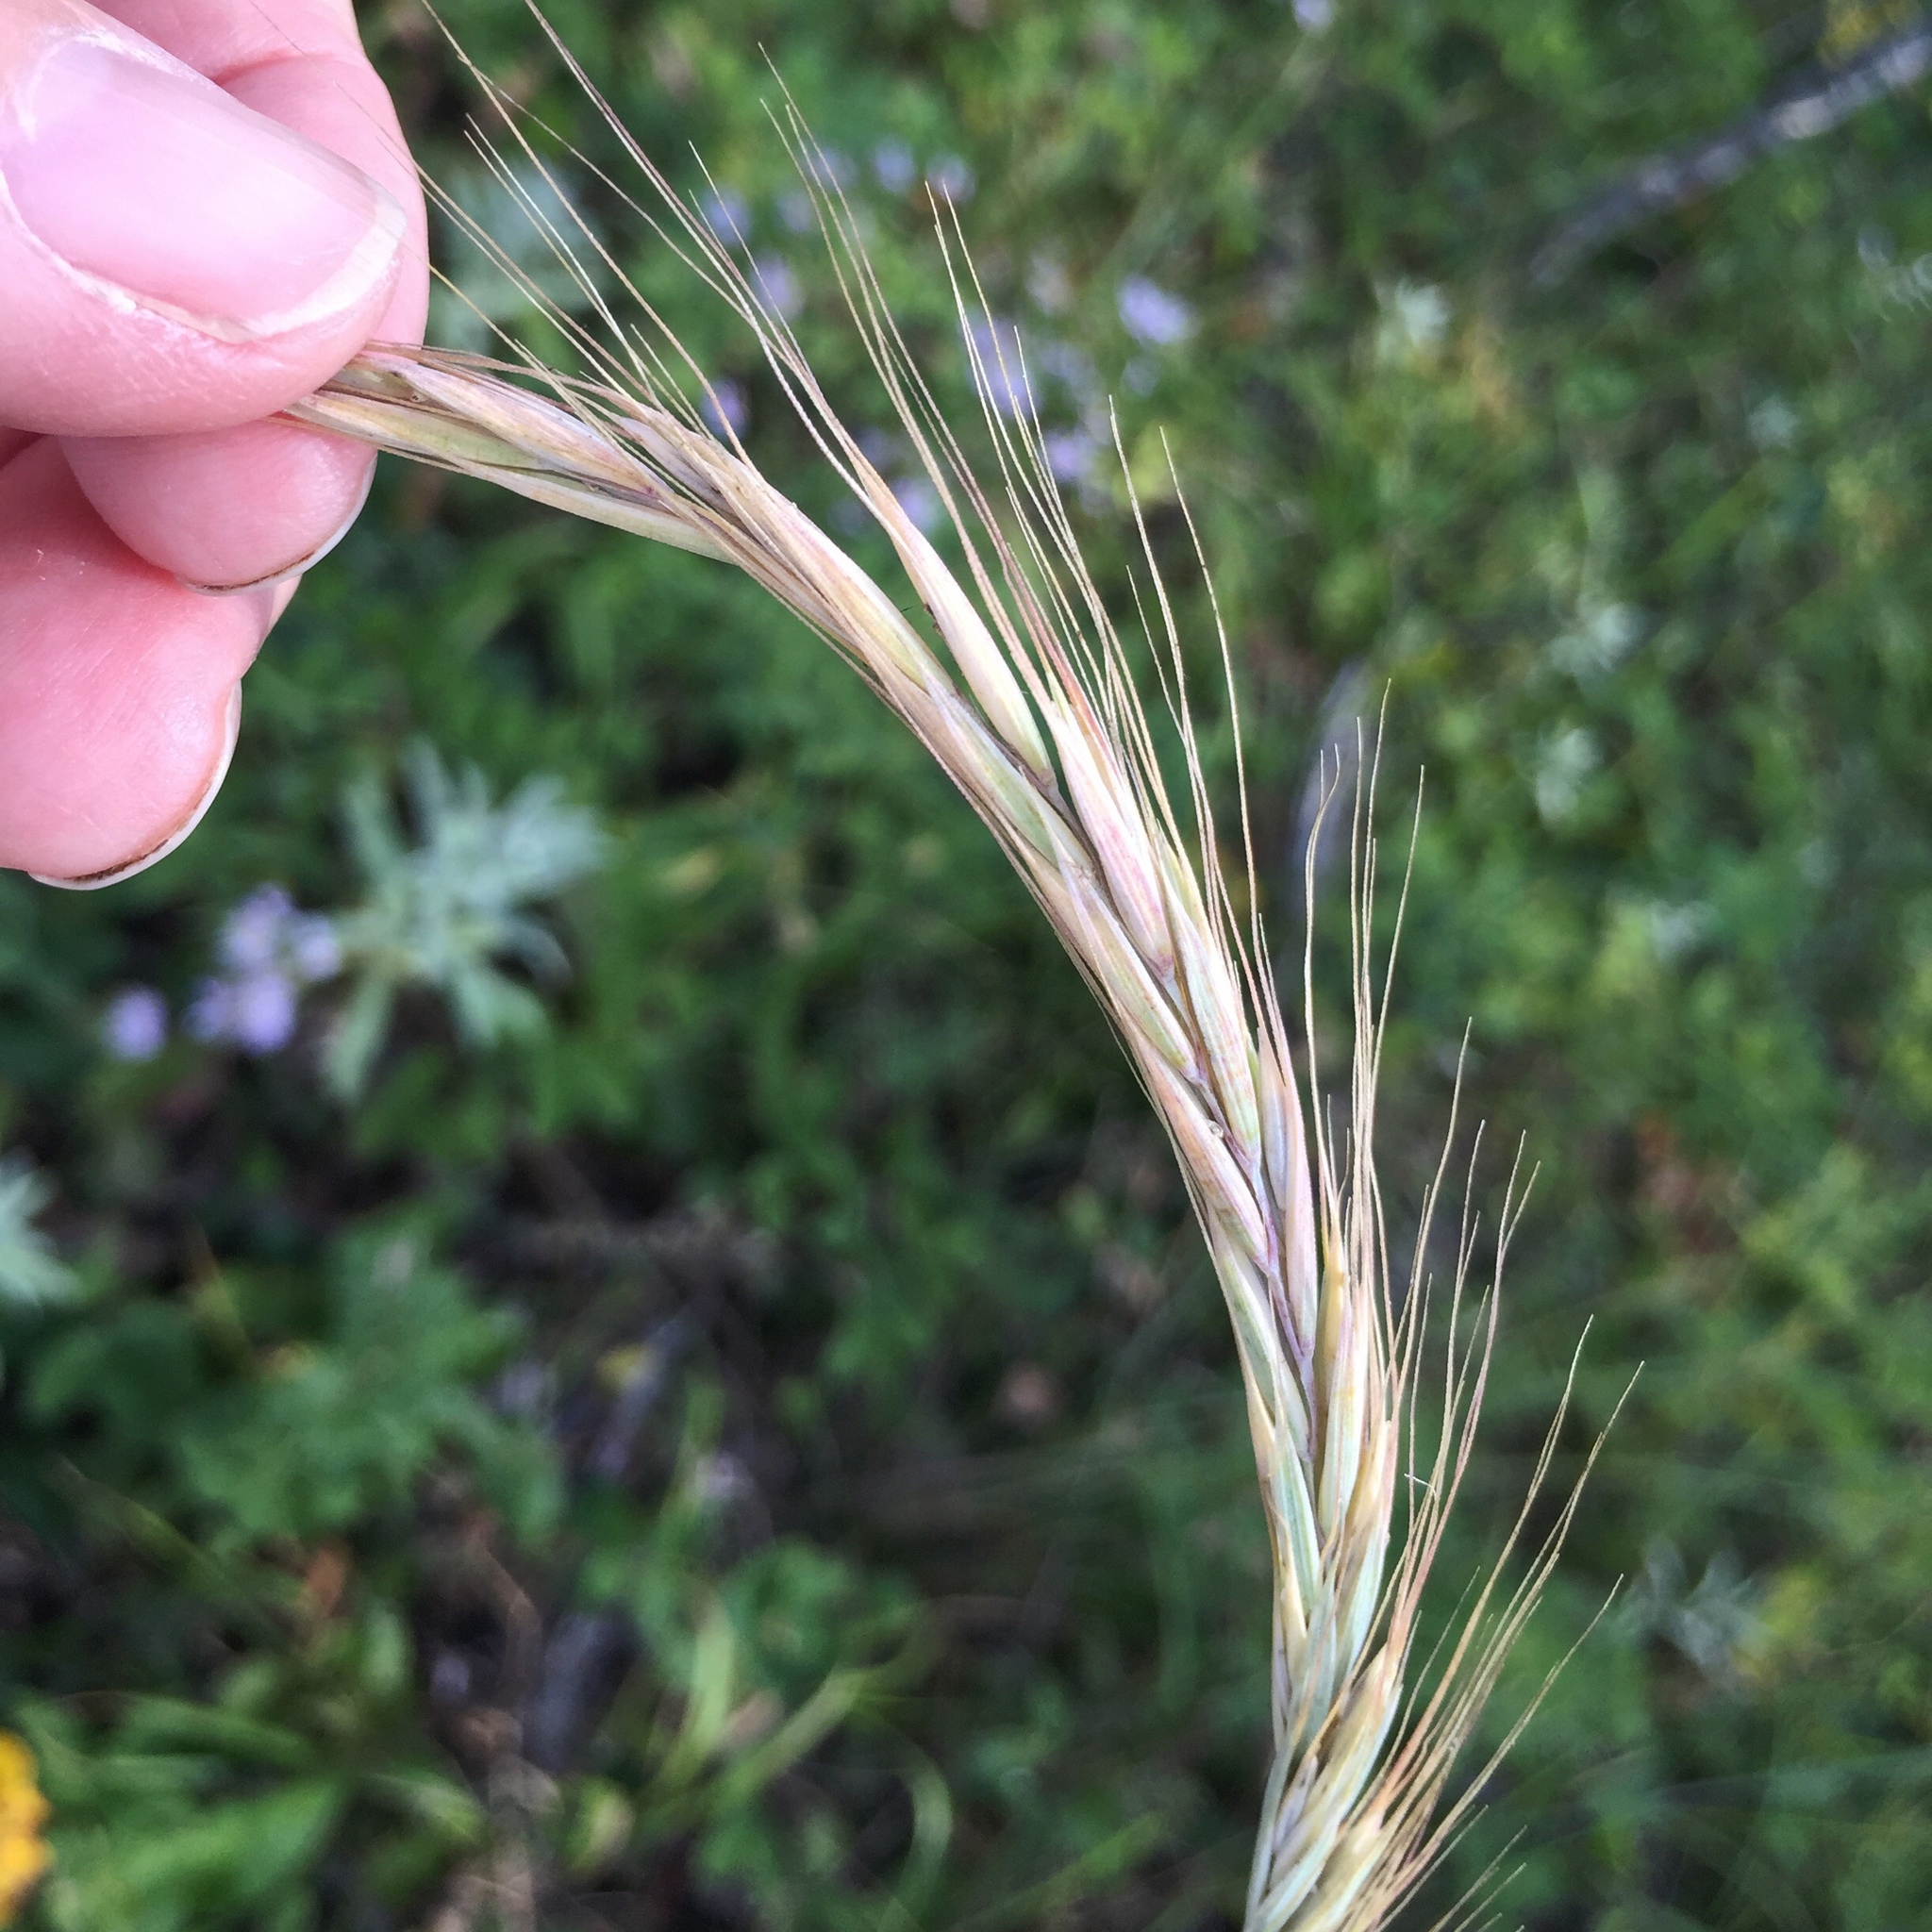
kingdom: Plantae
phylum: Tracheophyta
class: Liliopsida
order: Poales
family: Poaceae
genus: Elymus
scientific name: Elymus violaceus
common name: Arctic wheatgrass
